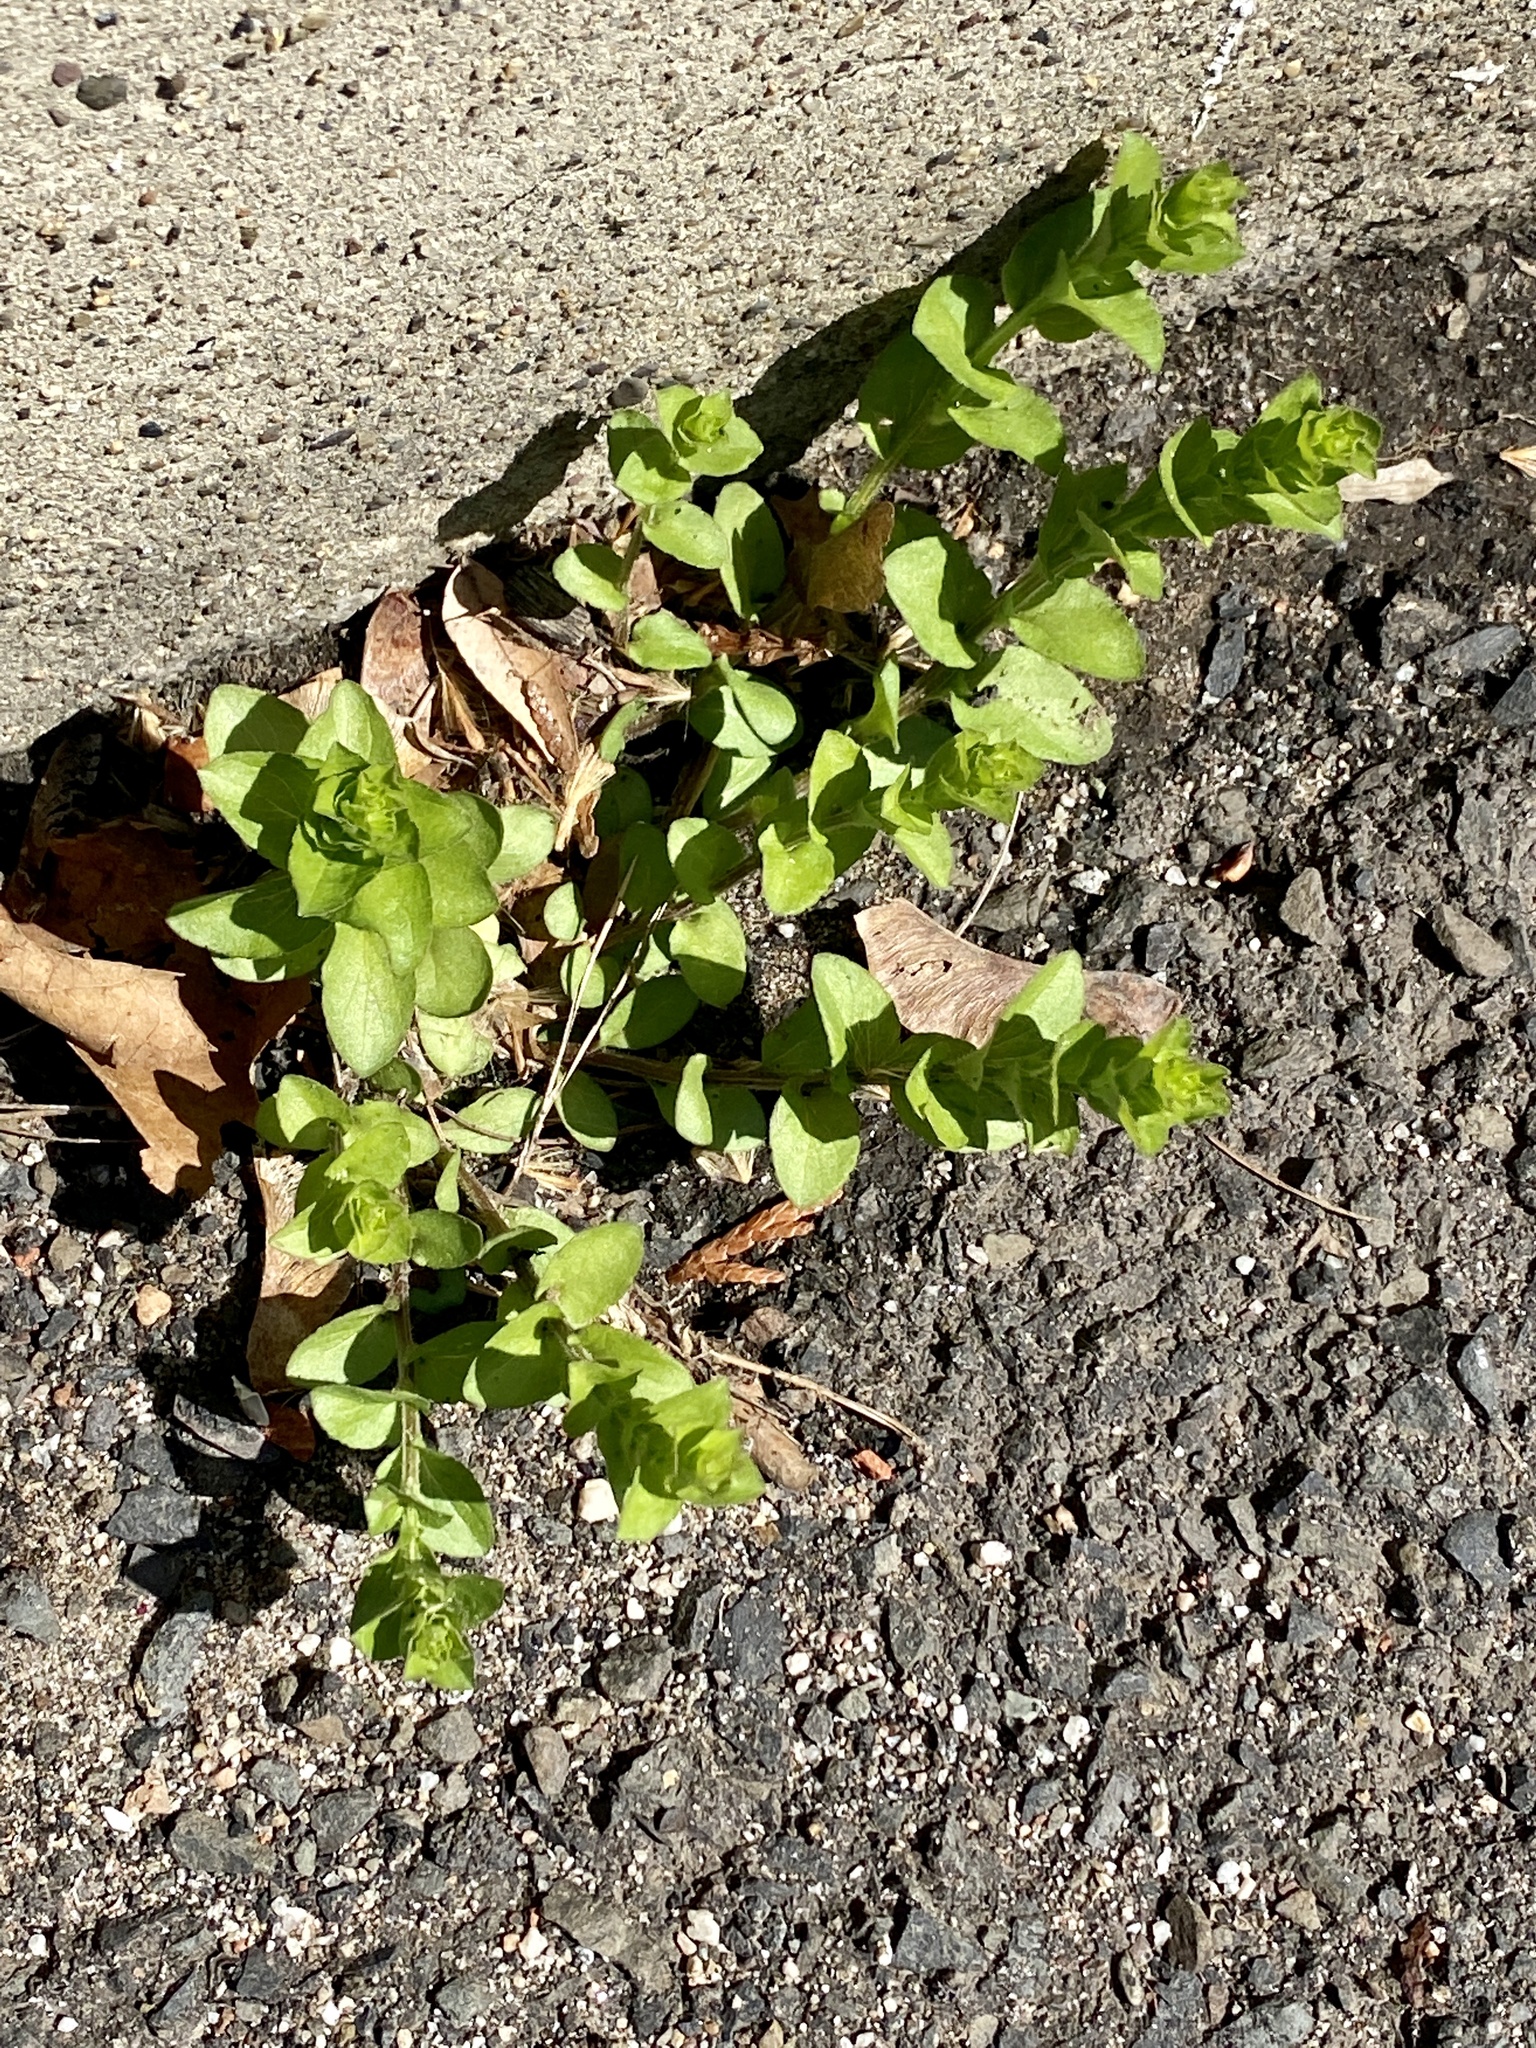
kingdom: Plantae
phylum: Tracheophyta
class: Magnoliopsida
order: Asterales
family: Campanulaceae
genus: Triodanis
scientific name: Triodanis perfoliata
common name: Clasping venus' looking-glass
